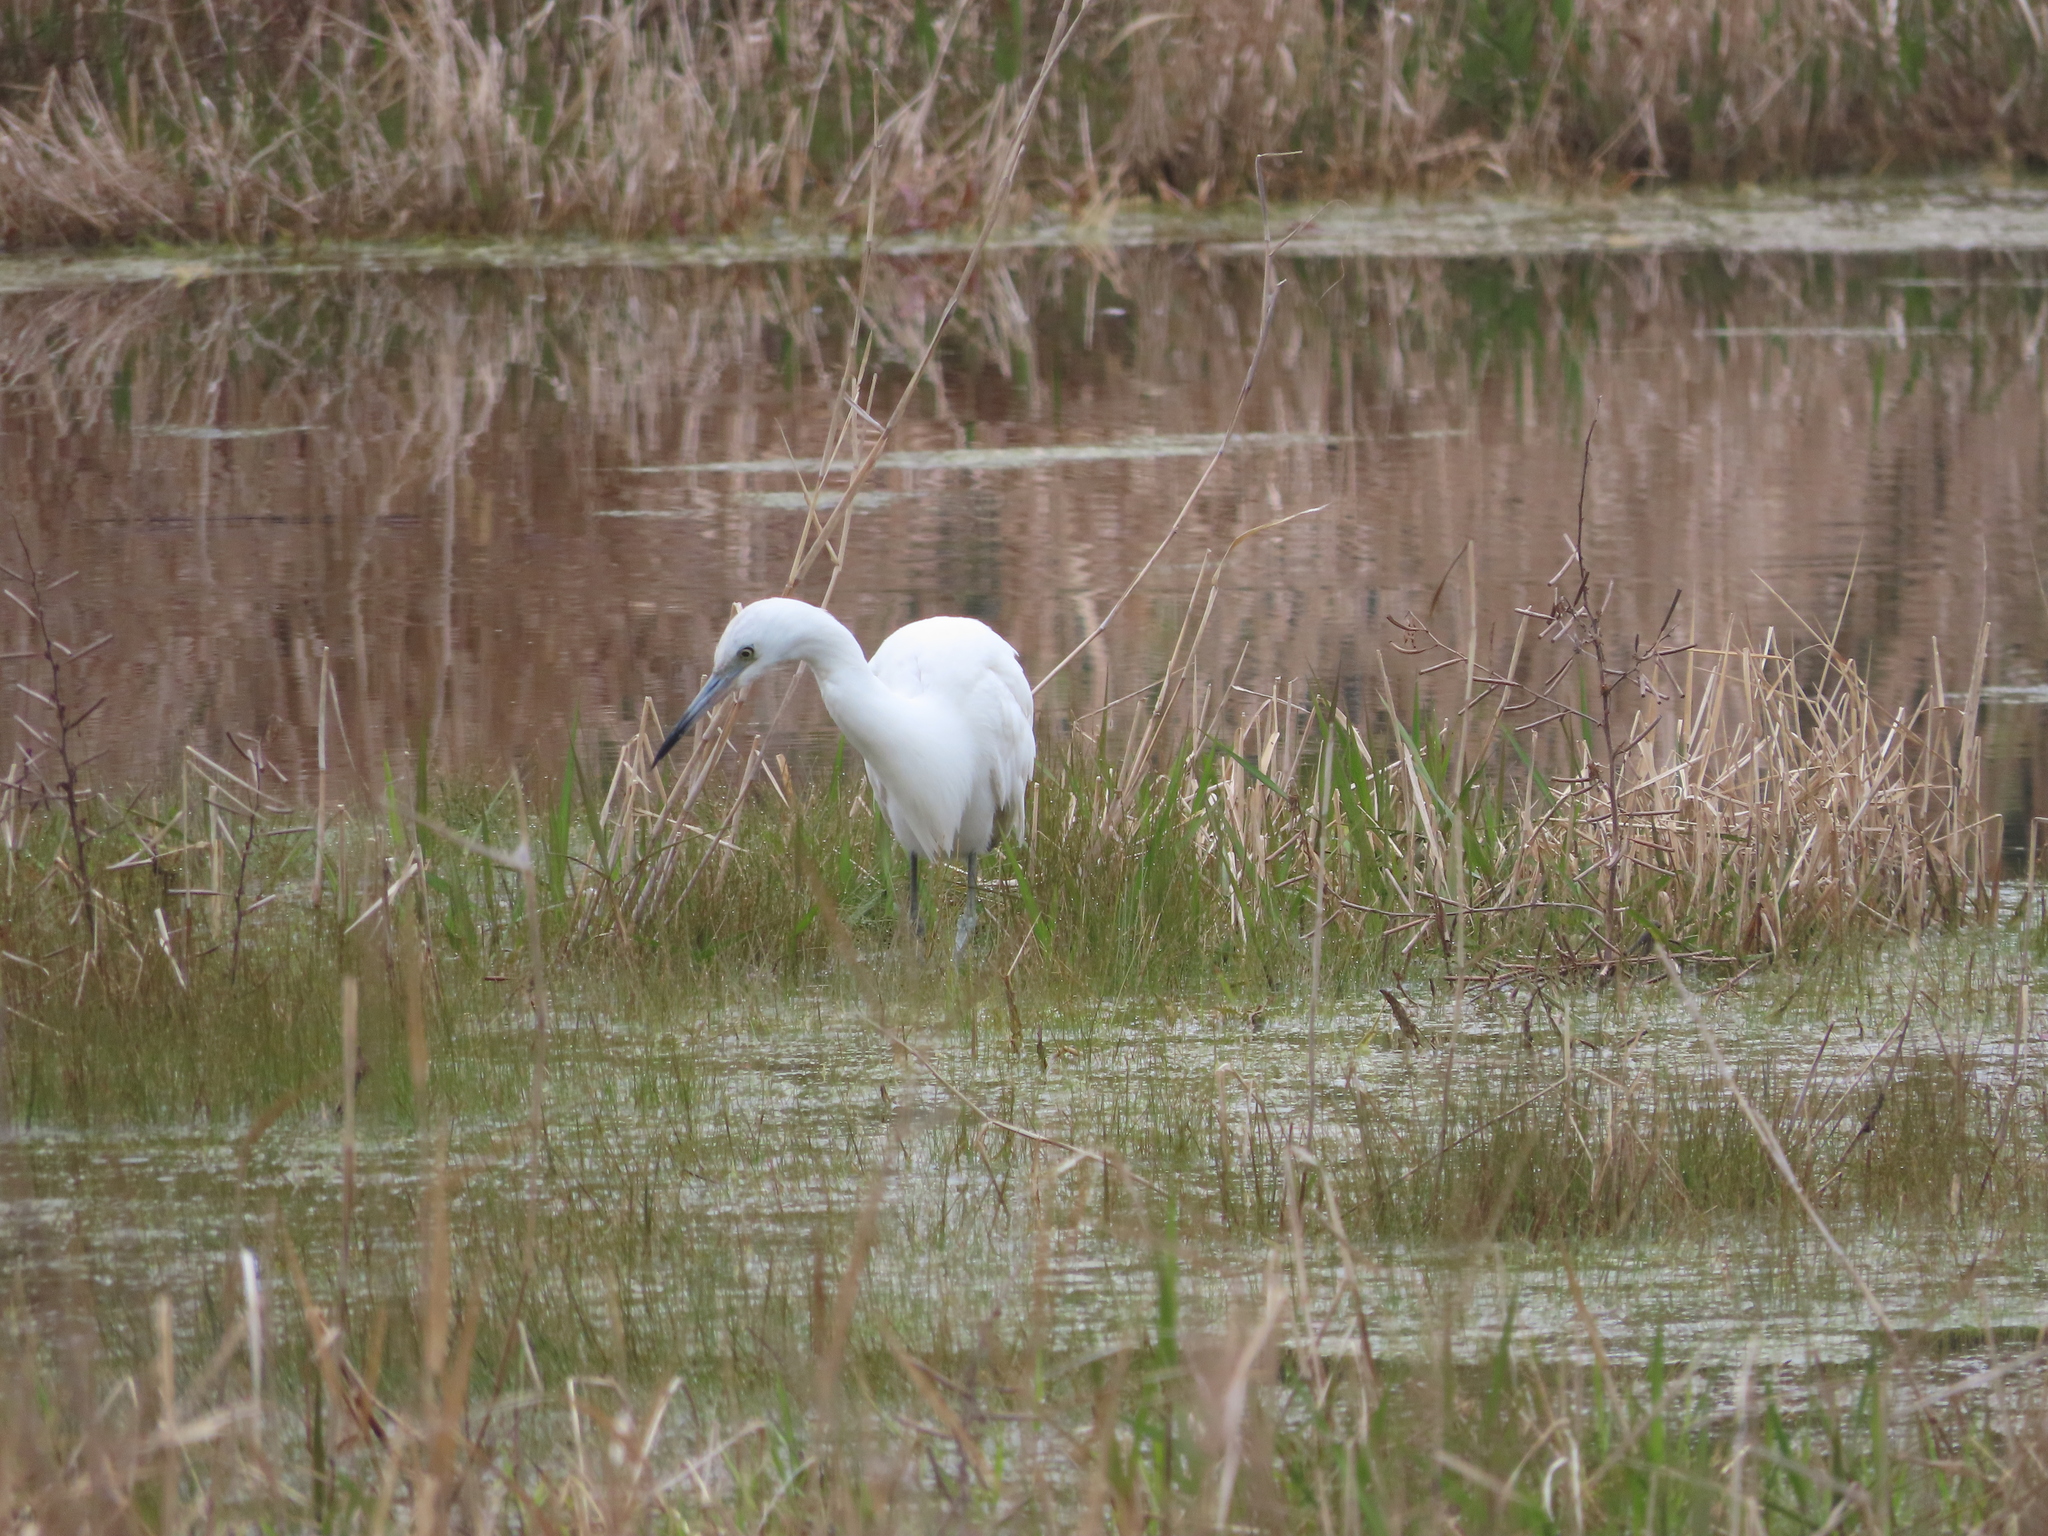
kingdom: Animalia
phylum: Chordata
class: Aves
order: Pelecaniformes
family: Ardeidae
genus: Egretta
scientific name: Egretta caerulea
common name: Little blue heron
